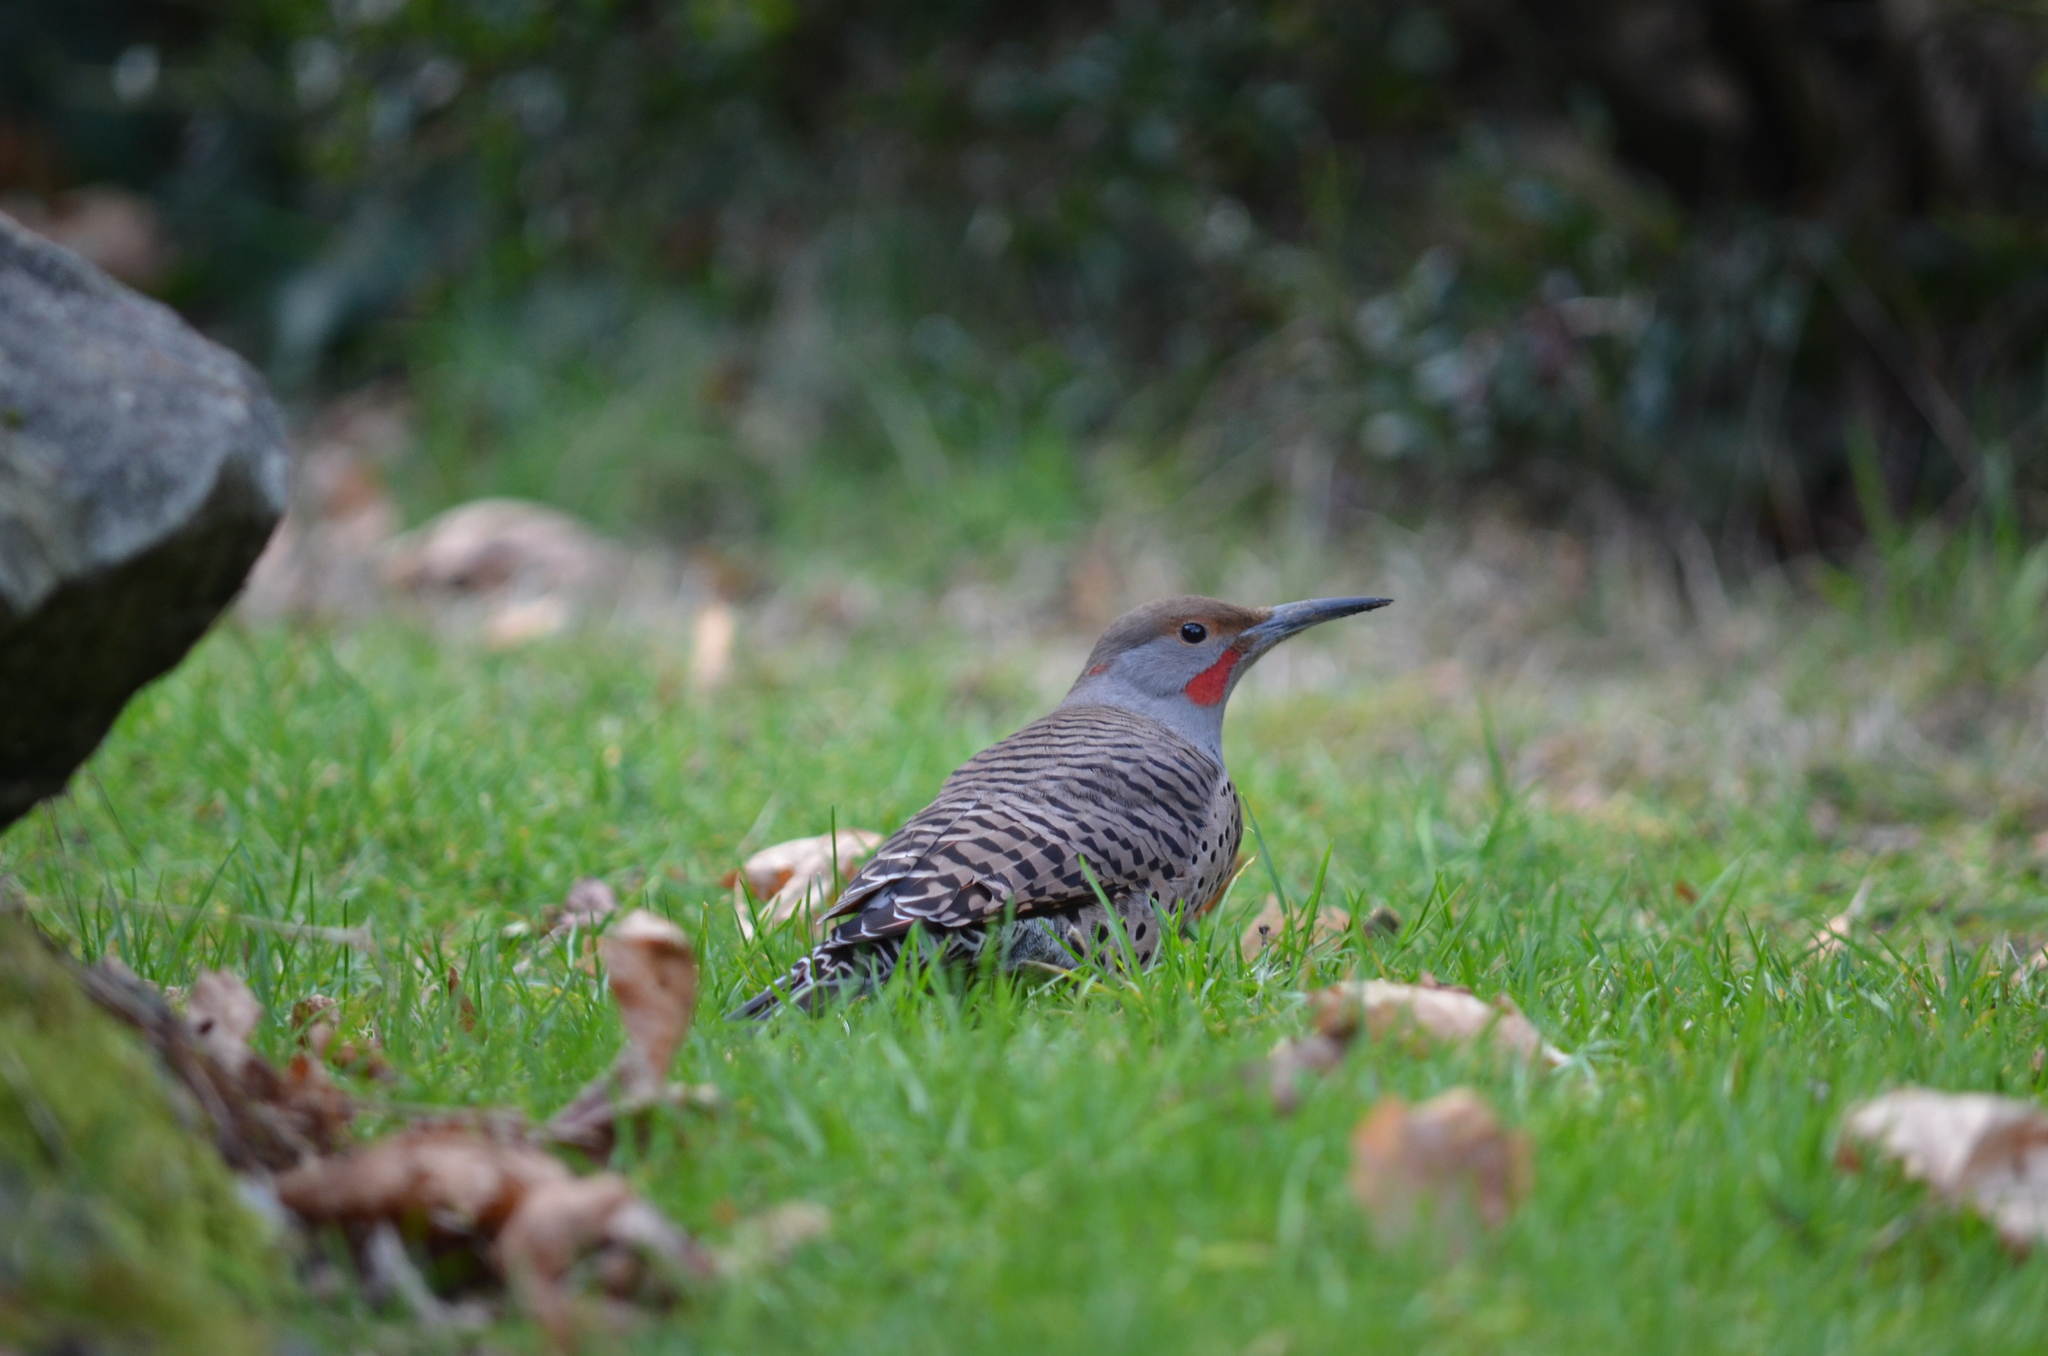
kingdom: Animalia
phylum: Chordata
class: Aves
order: Piciformes
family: Picidae
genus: Colaptes
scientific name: Colaptes
